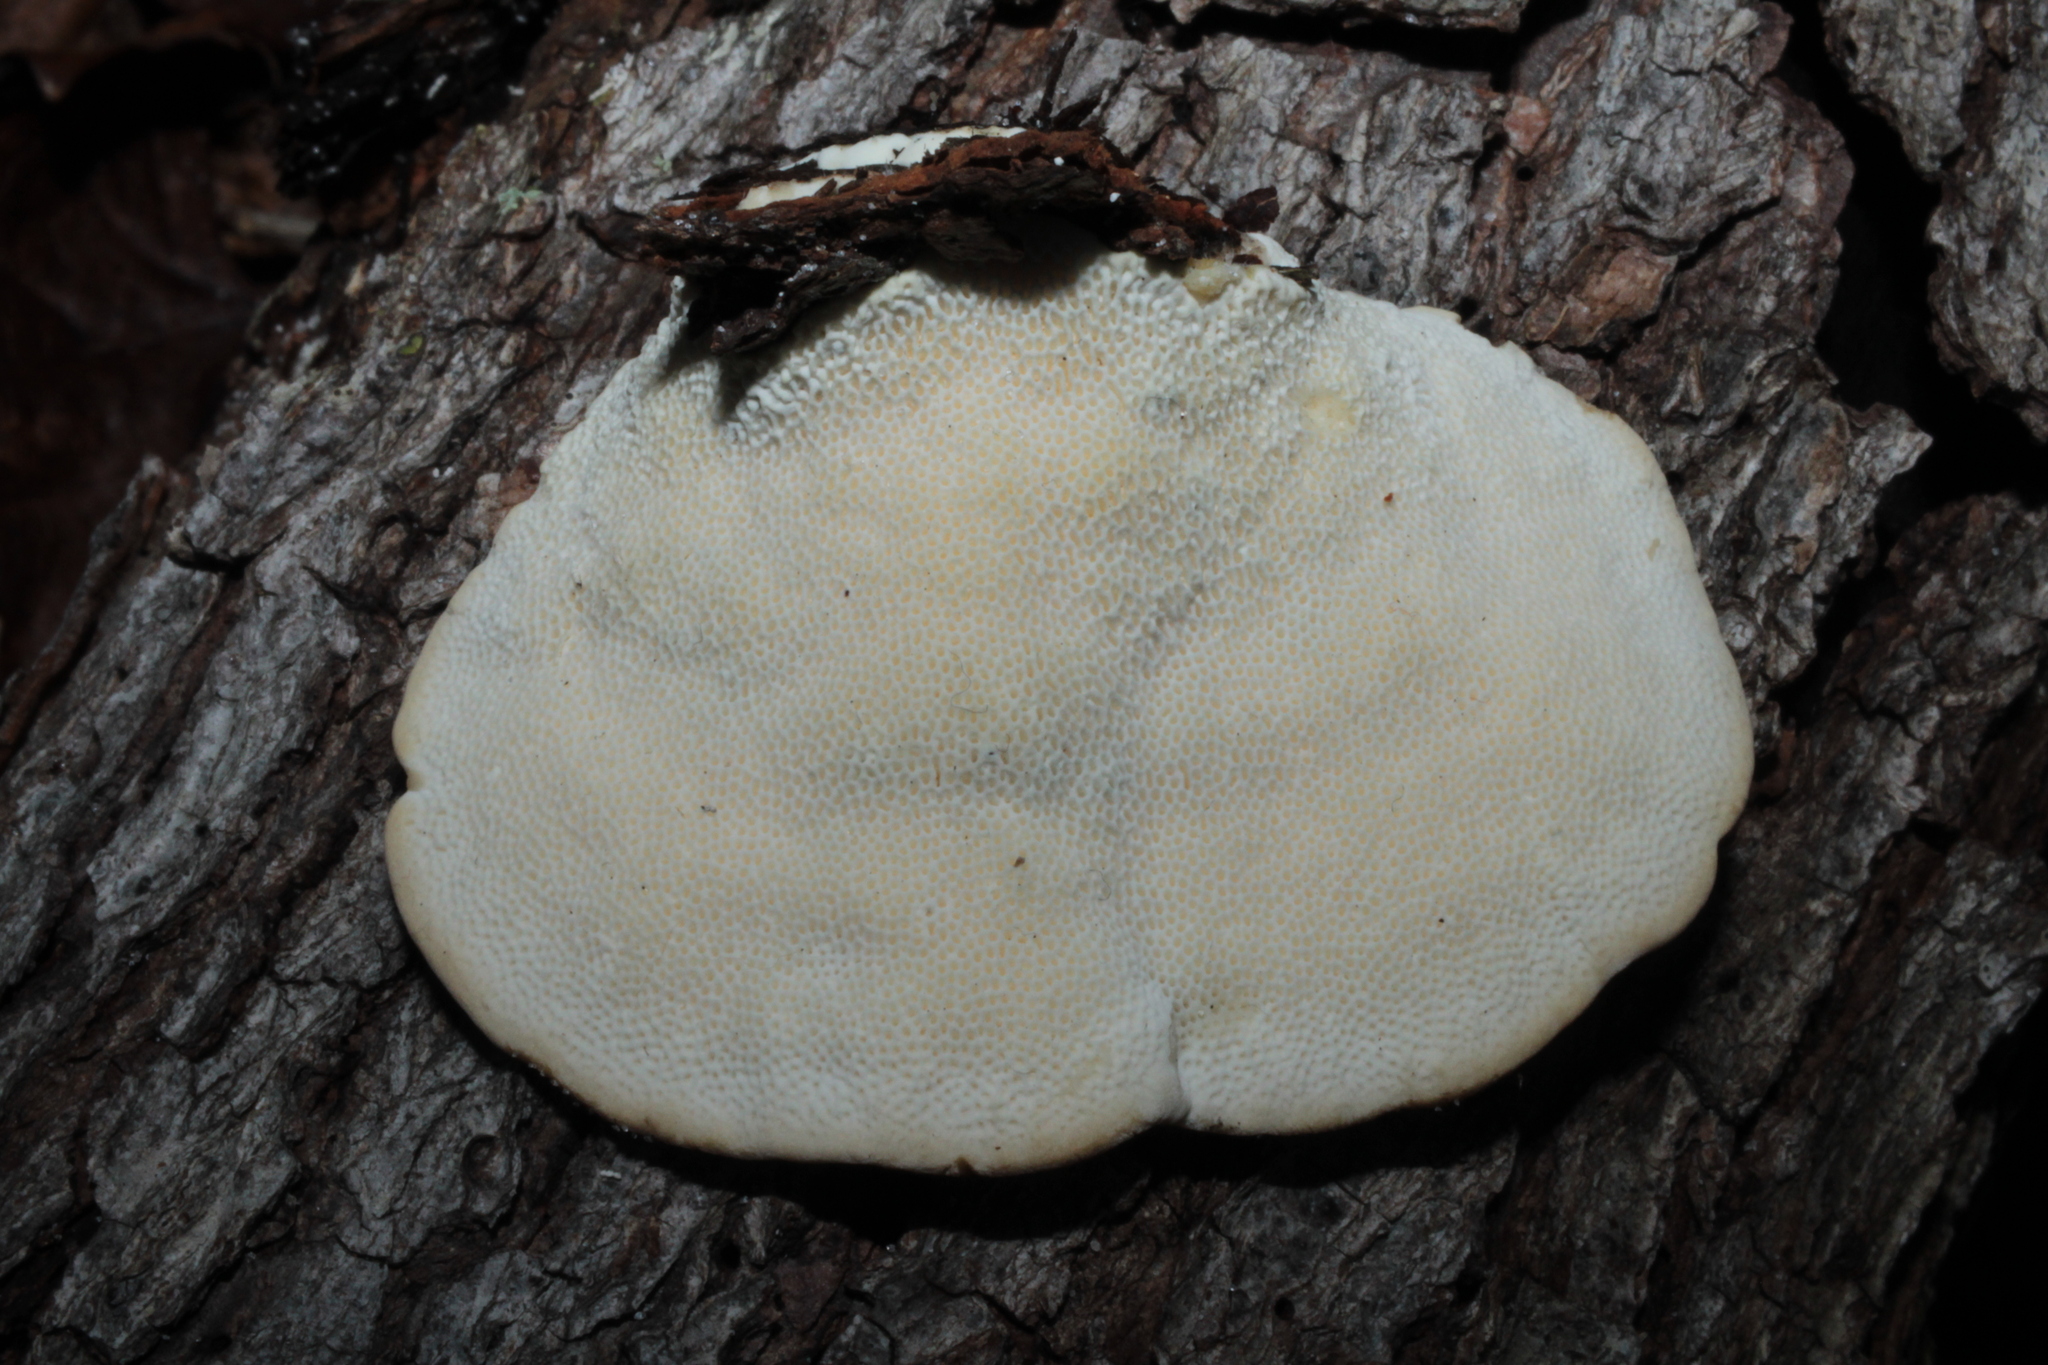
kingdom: Fungi
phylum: Basidiomycota
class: Agaricomycetes
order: Polyporales
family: Polyporaceae
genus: Trametes
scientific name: Trametes lactinea
